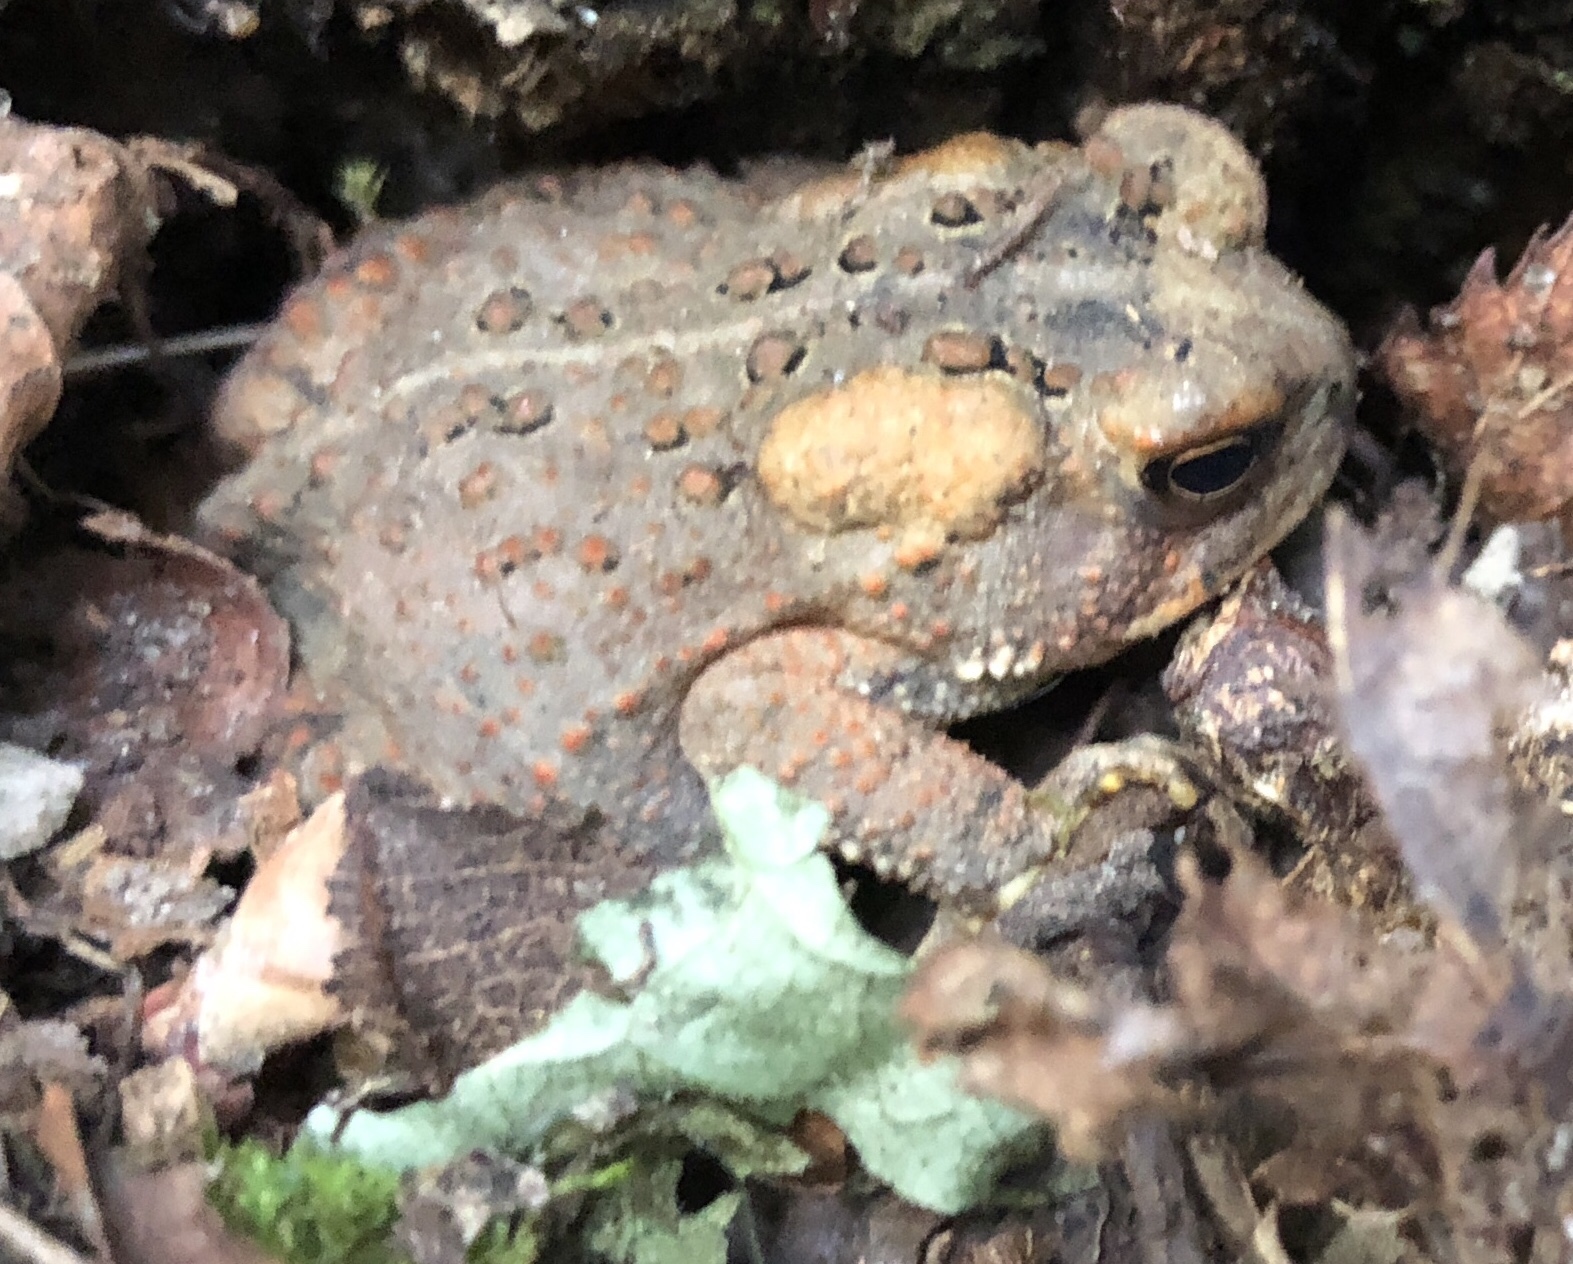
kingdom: Animalia
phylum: Chordata
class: Amphibia
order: Anura
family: Bufonidae
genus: Anaxyrus
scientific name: Anaxyrus americanus
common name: American toad
